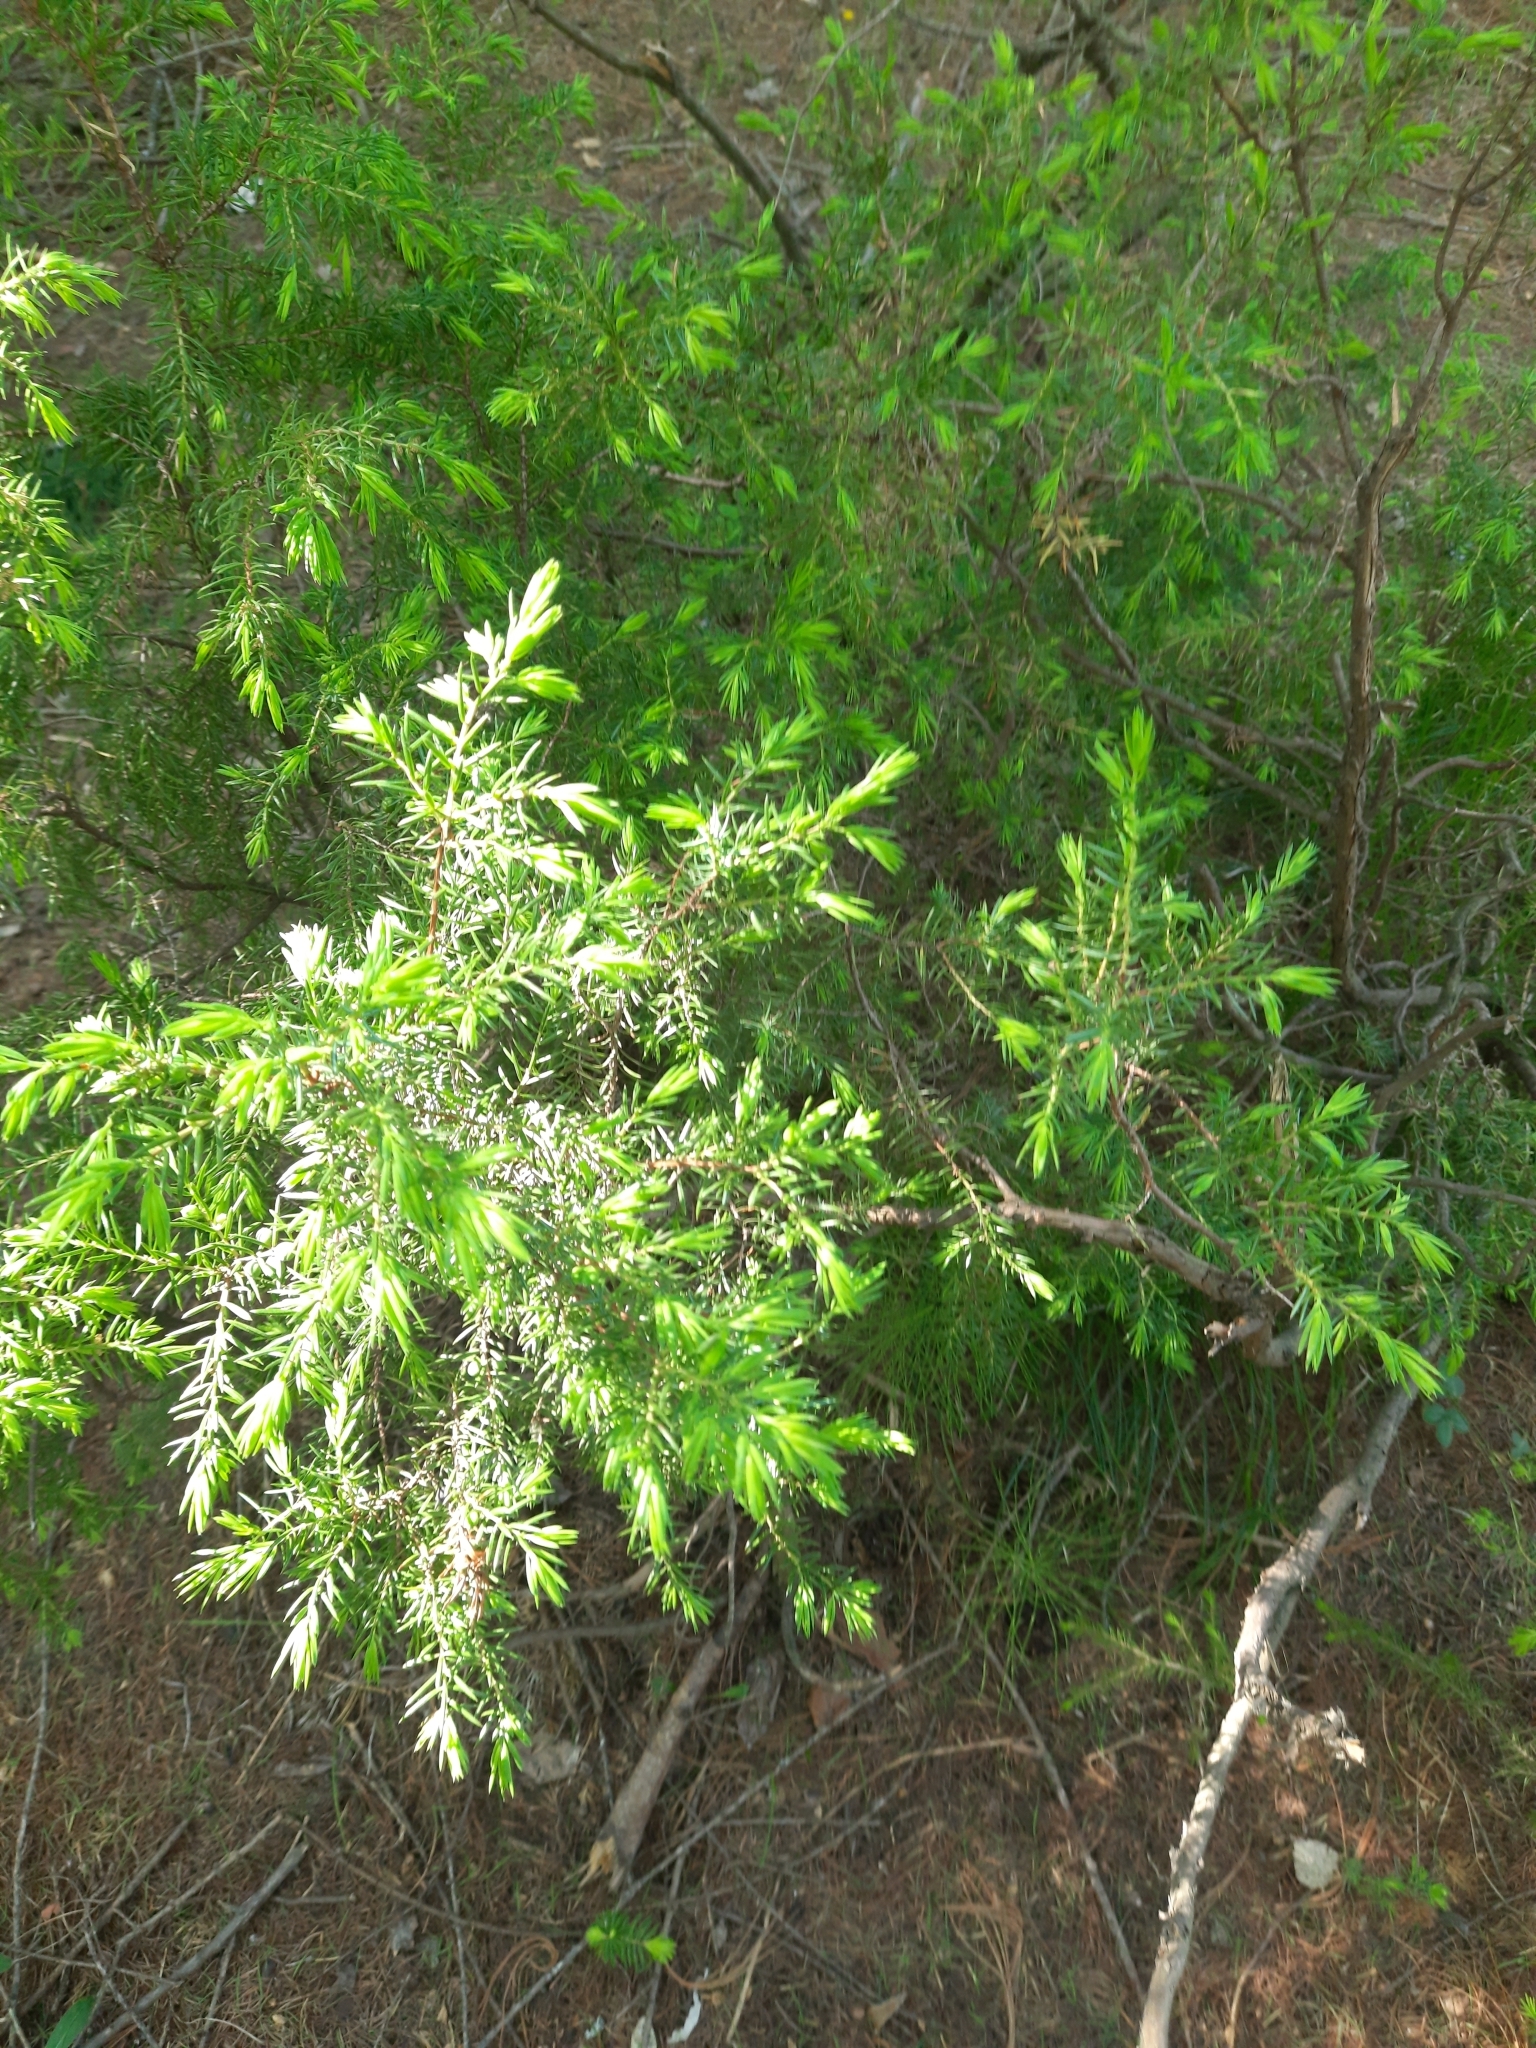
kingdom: Plantae
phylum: Tracheophyta
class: Pinopsida
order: Pinales
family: Cupressaceae
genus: Juniperus
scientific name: Juniperus communis
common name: Common juniper
